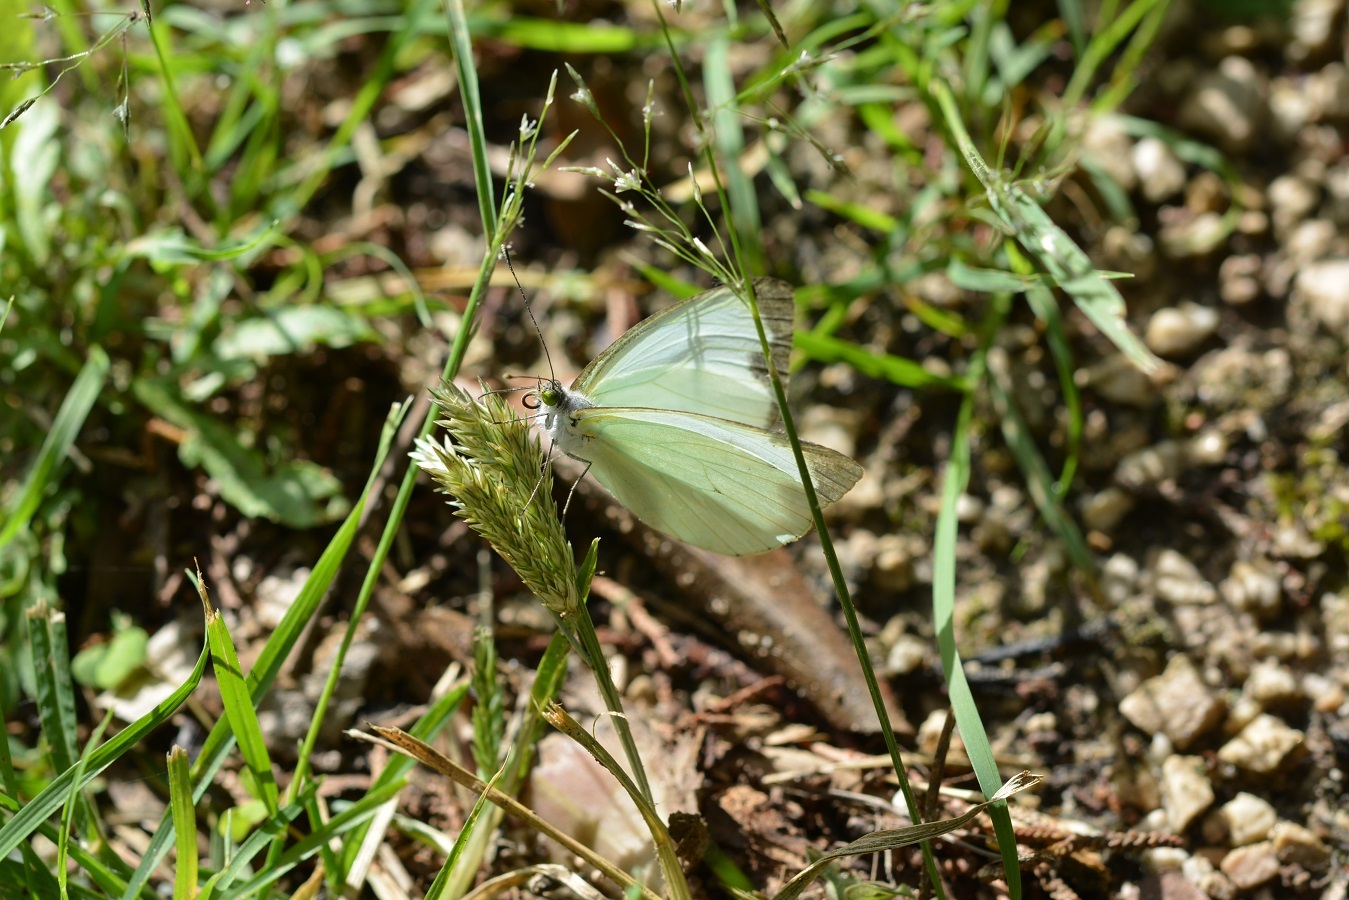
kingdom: Animalia
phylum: Arthropoda
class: Insecta
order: Lepidoptera
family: Pieridae
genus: Leptophobia
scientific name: Leptophobia aripa
